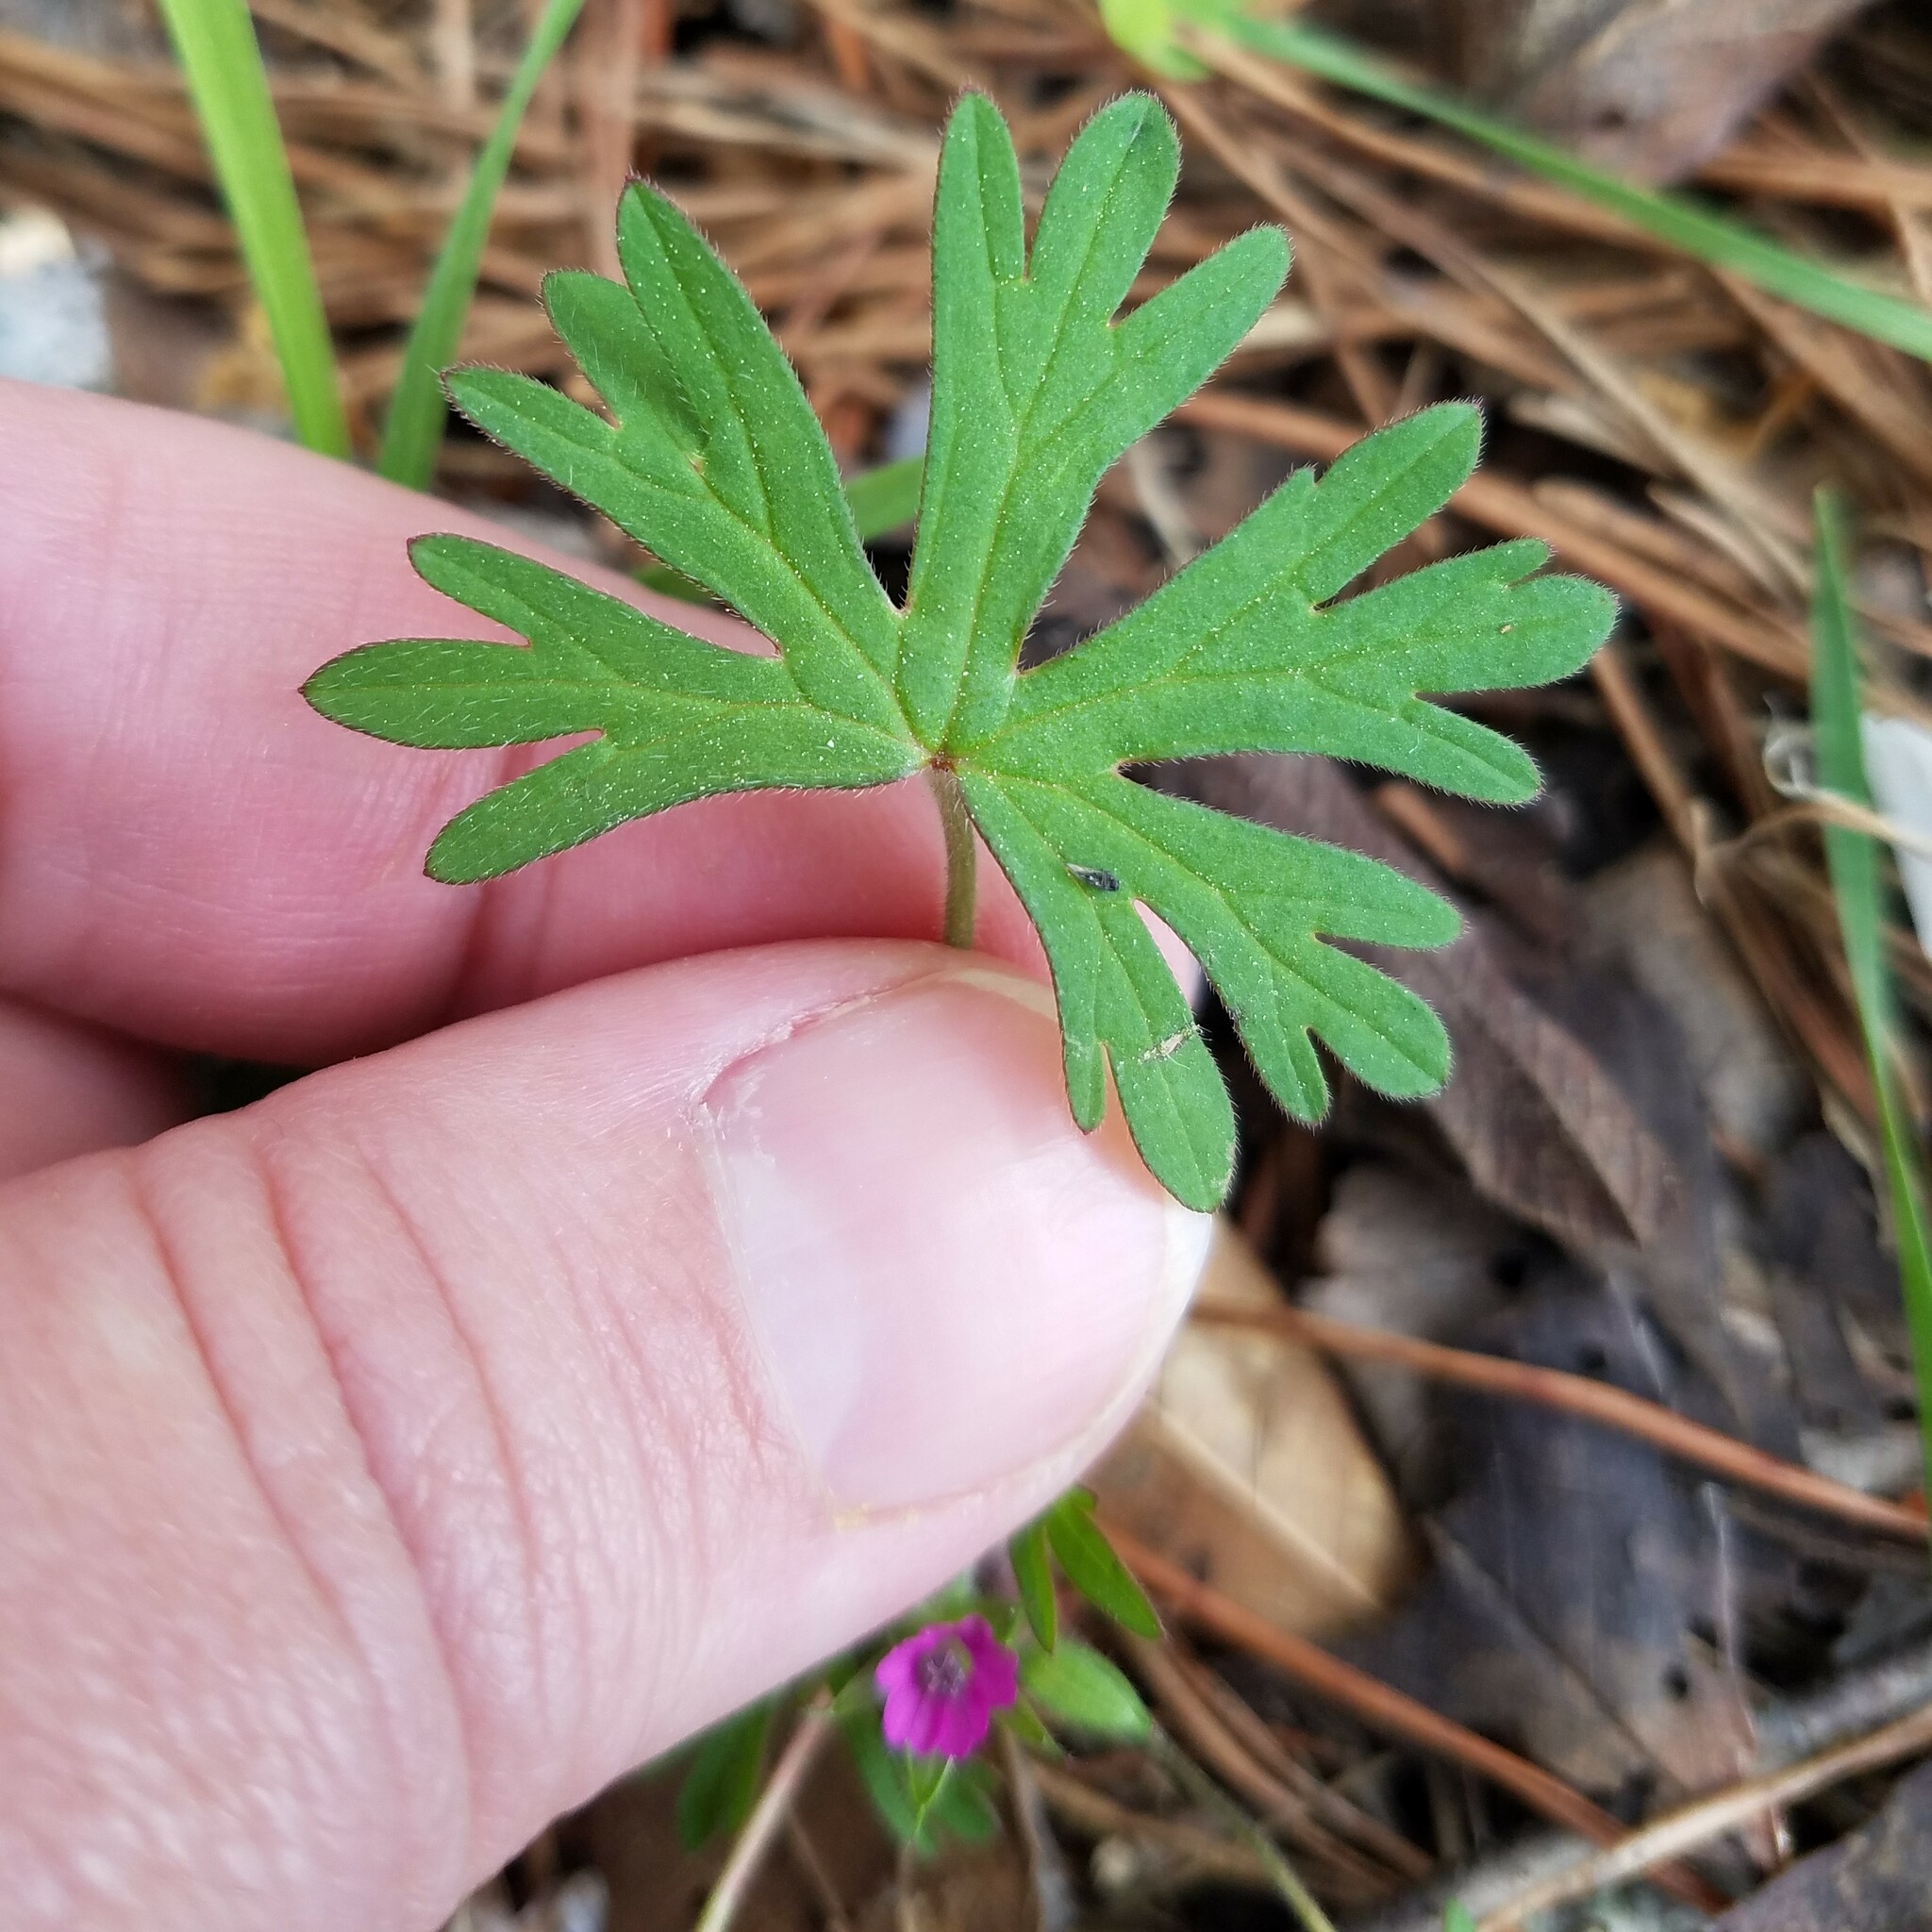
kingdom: Plantae
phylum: Tracheophyta
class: Magnoliopsida
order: Geraniales
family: Geraniaceae
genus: Geranium
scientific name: Geranium dissectum
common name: Cut-leaved crane's-bill
